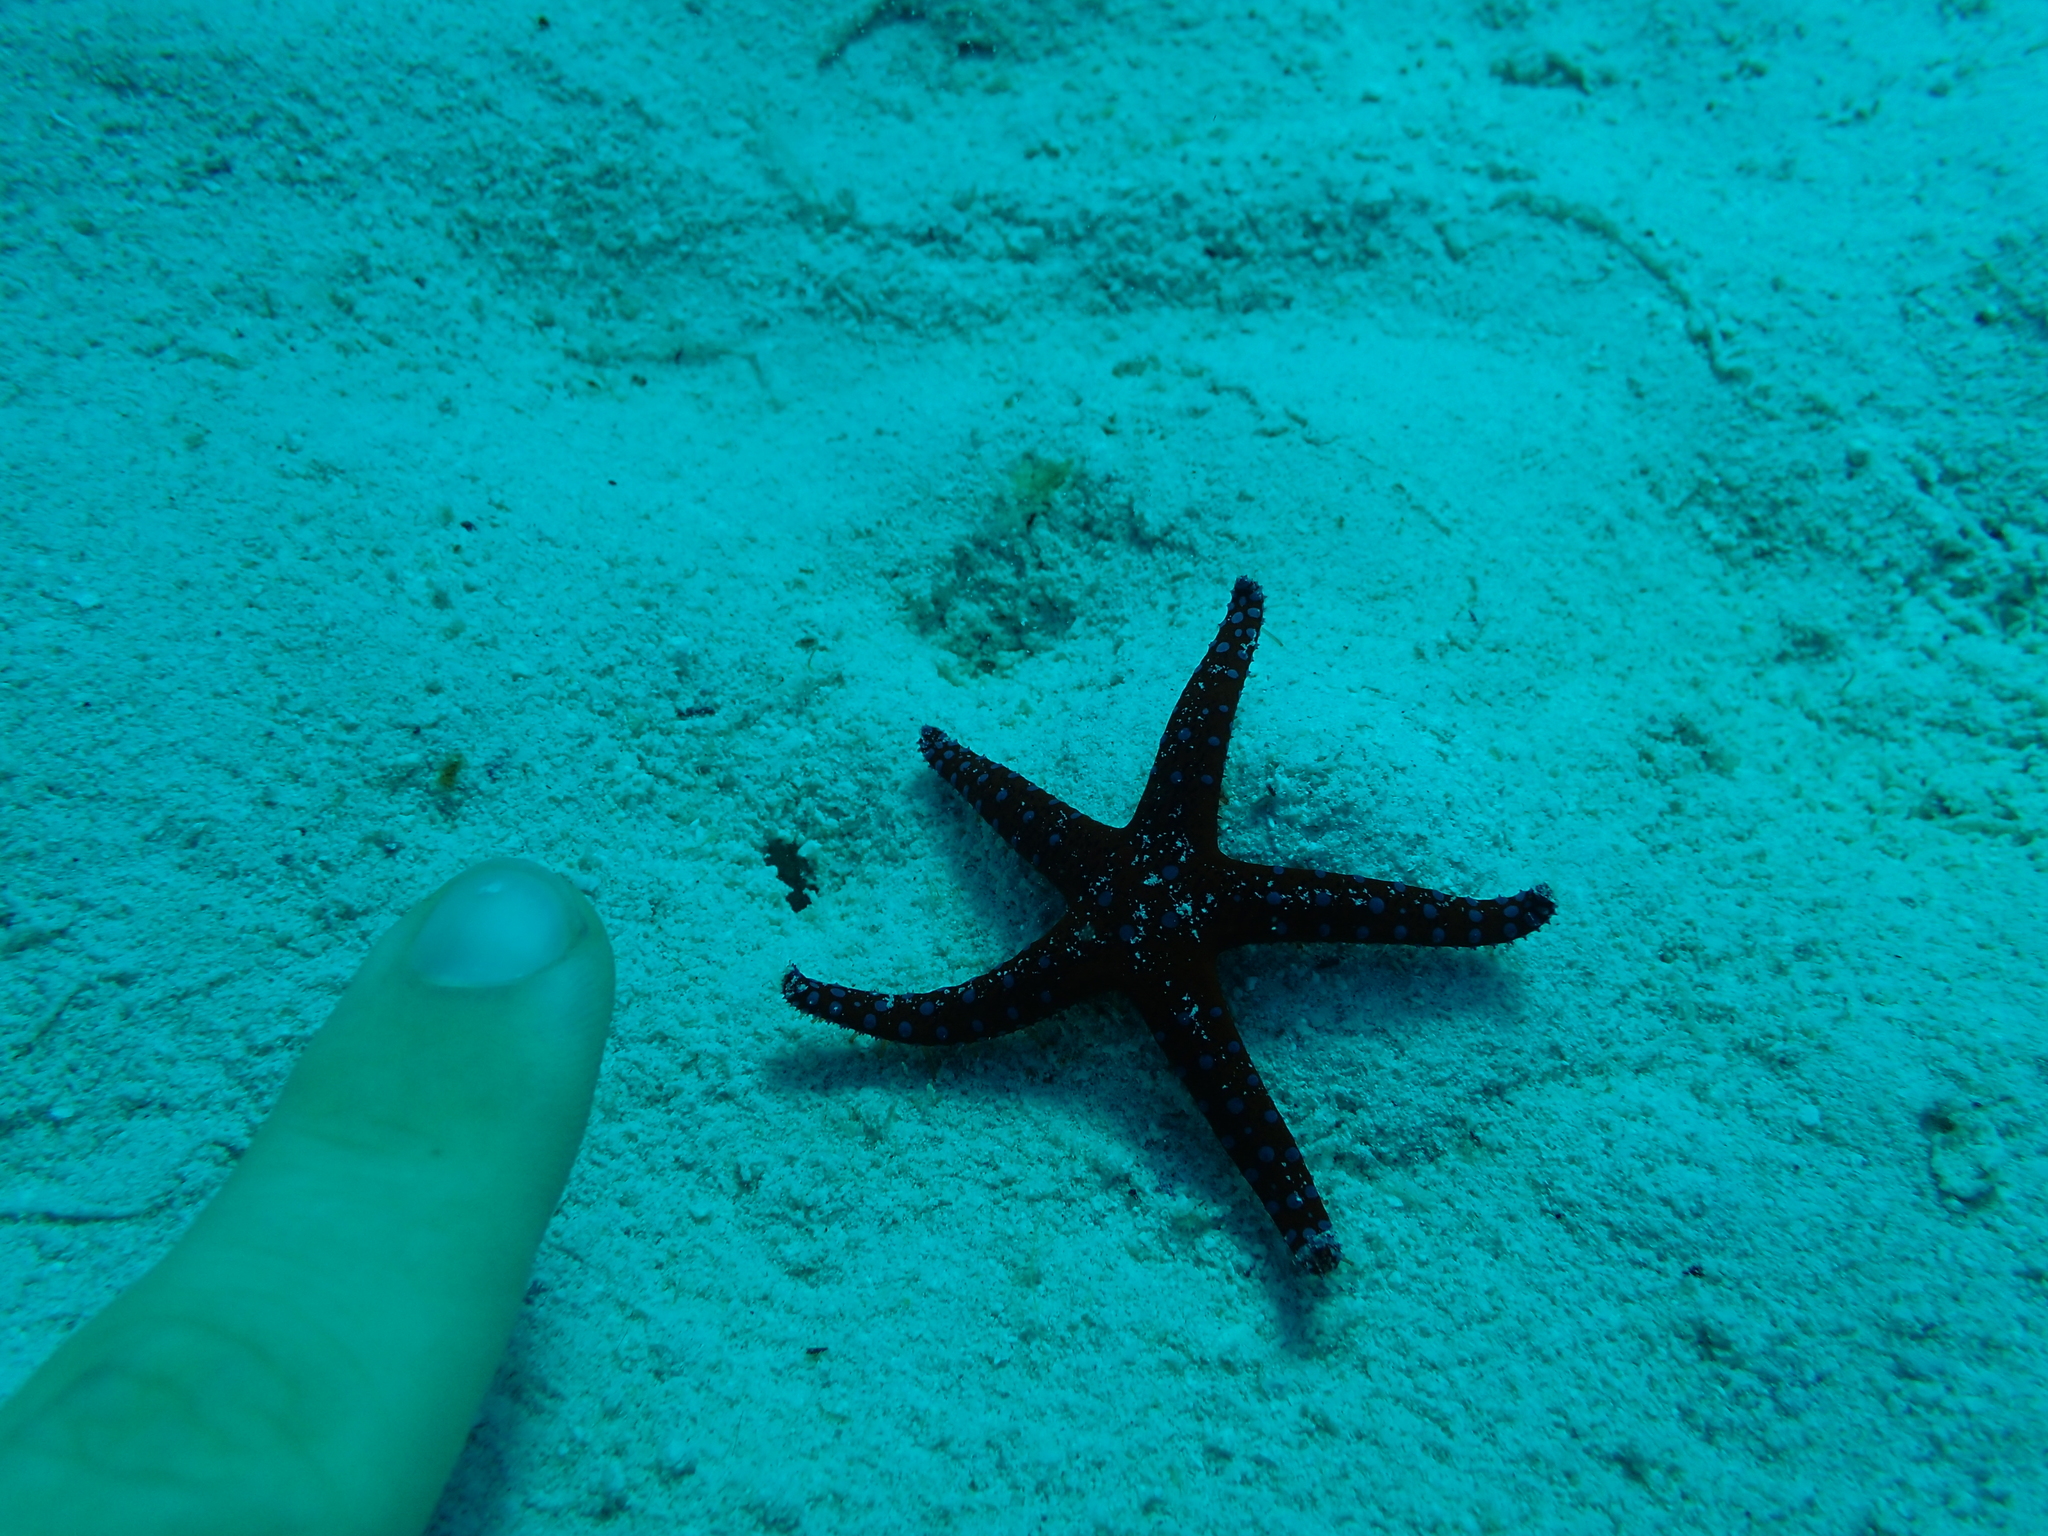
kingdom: Animalia
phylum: Echinodermata
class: Asteroidea
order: Valvatida
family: Goniasteridae
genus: Fromia
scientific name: Fromia ghardaqana
